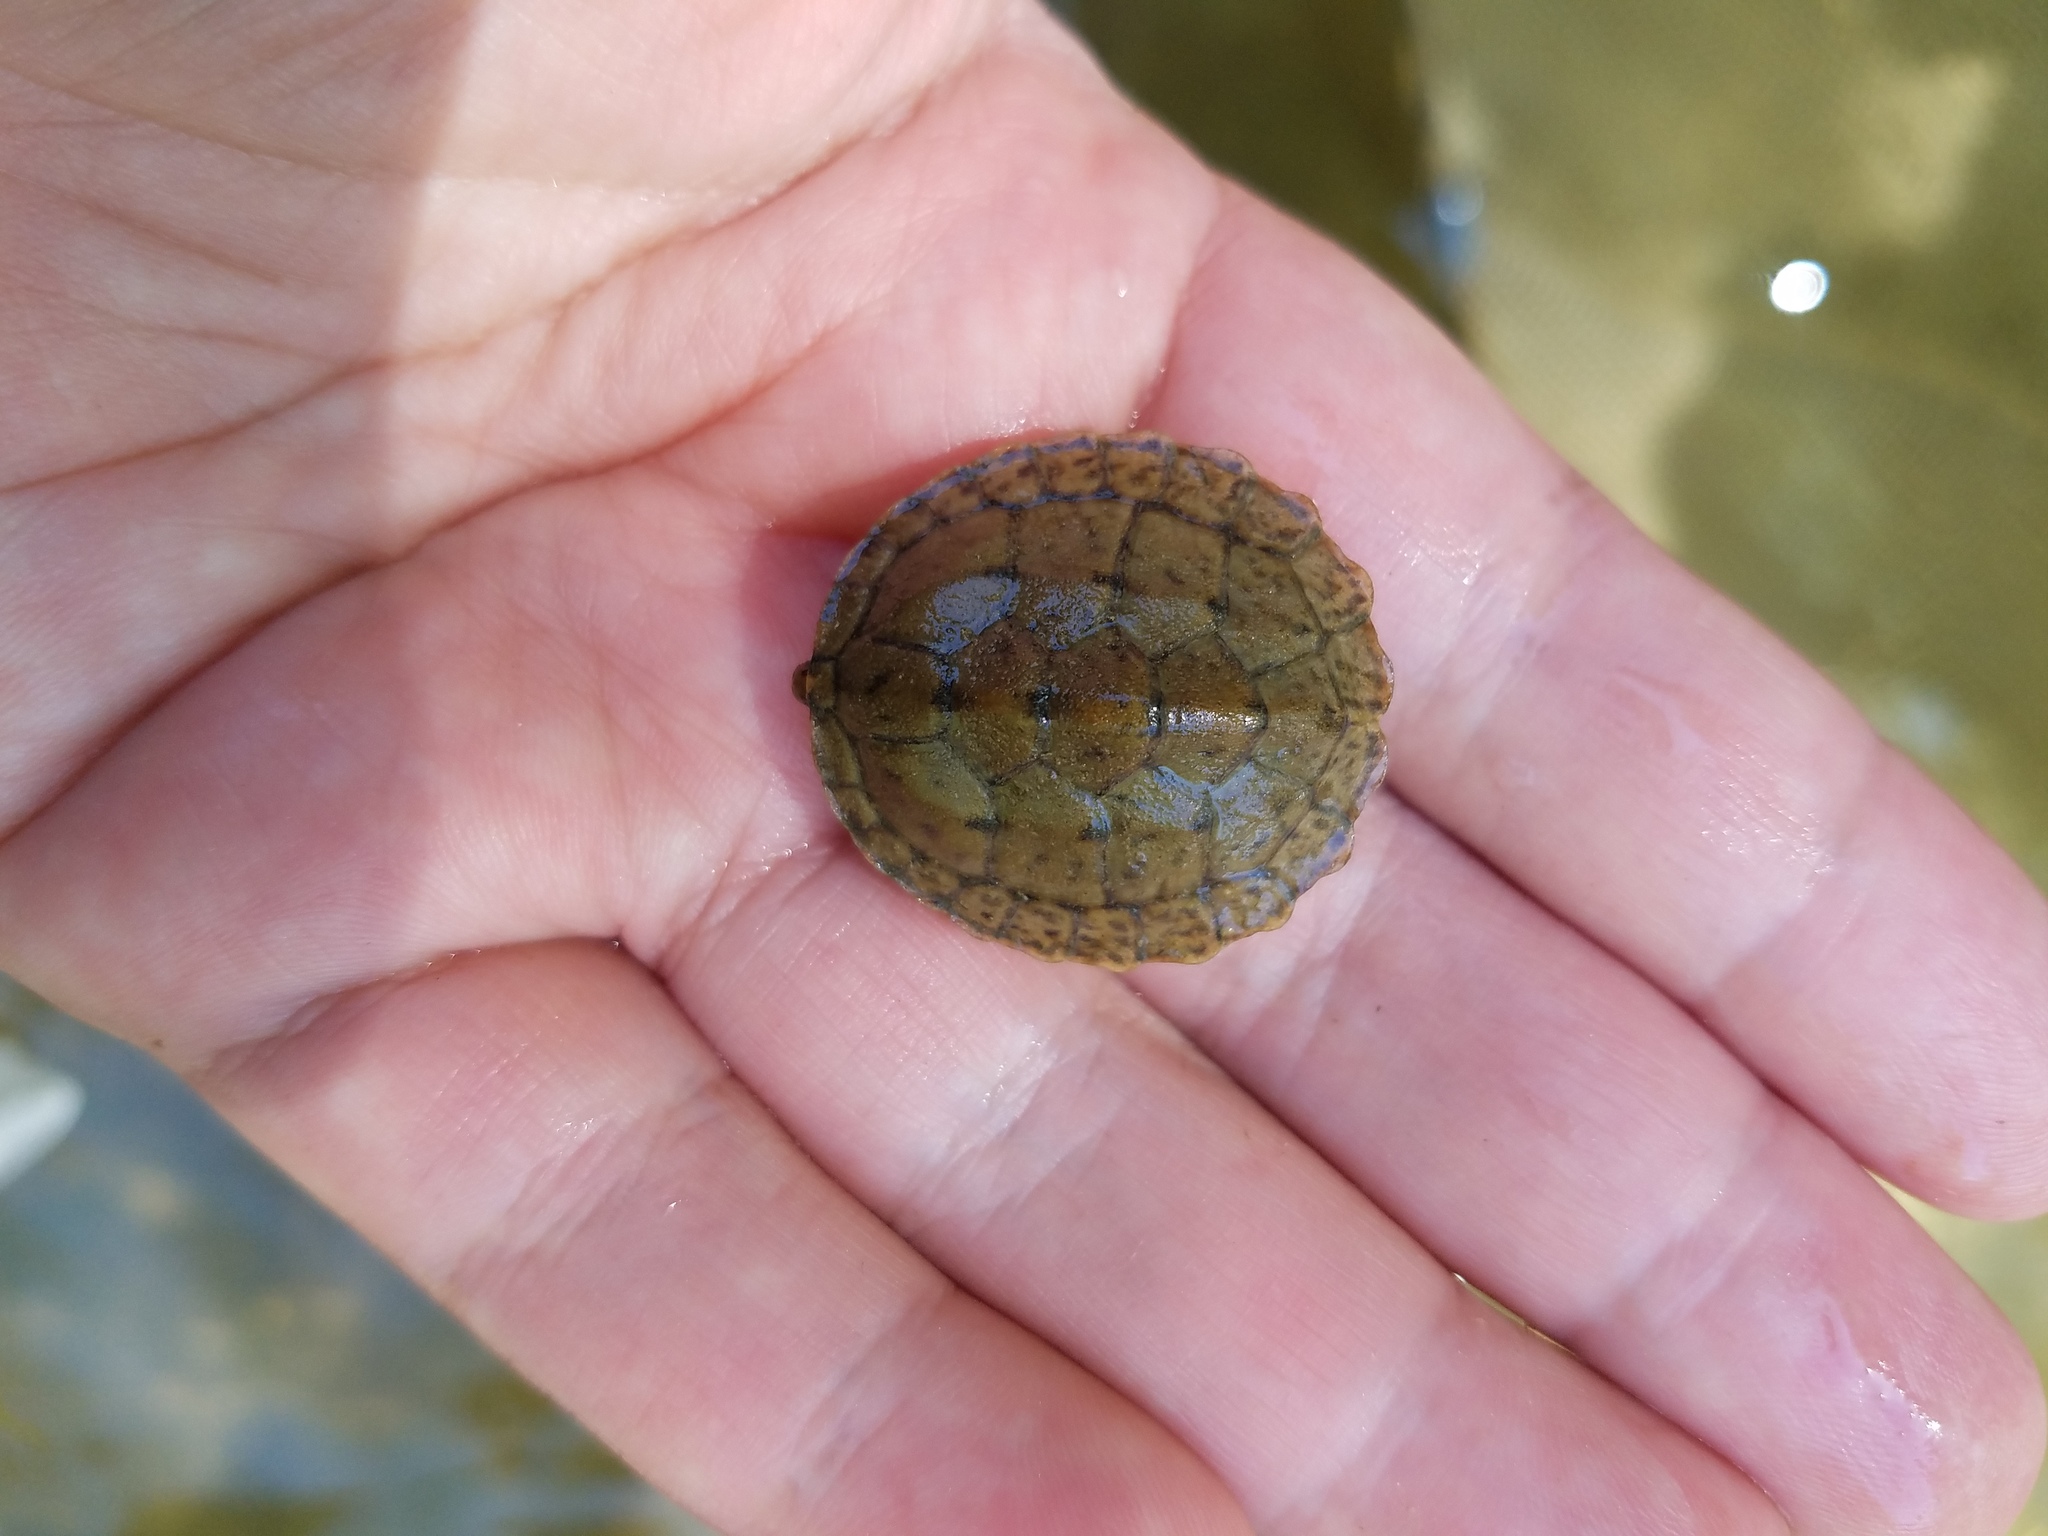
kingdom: Animalia
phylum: Chordata
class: Testudines
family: Kinosternidae
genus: Sternotherus
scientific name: Sternotherus peltifer
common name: Stripeneck musk turtle
